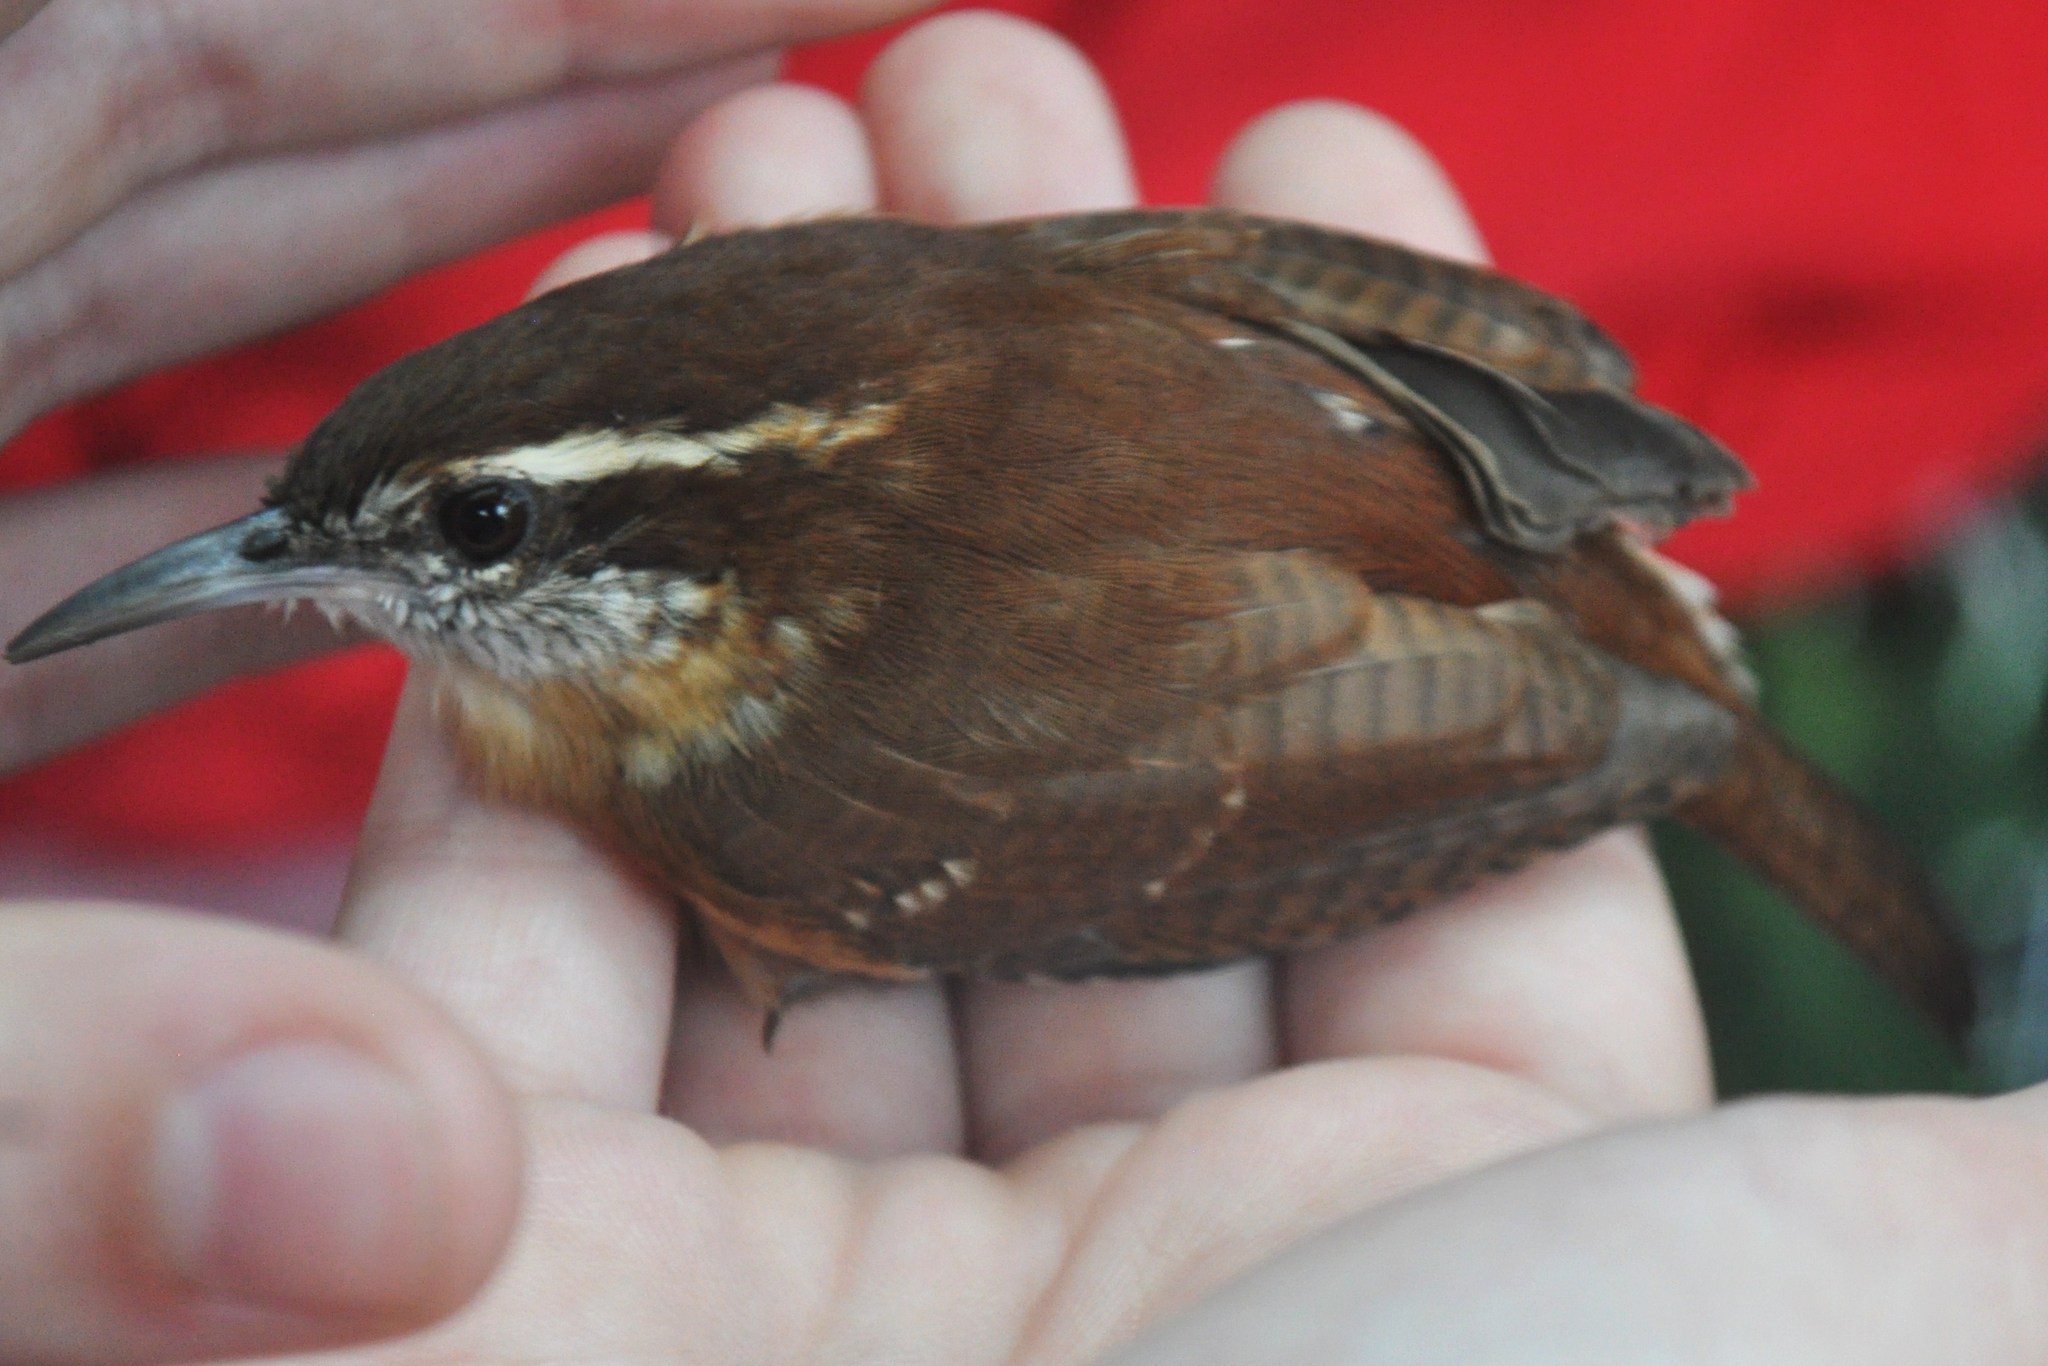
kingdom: Animalia
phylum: Chordata
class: Aves
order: Passeriformes
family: Troglodytidae
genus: Thryothorus
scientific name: Thryothorus ludovicianus
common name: Carolina wren
